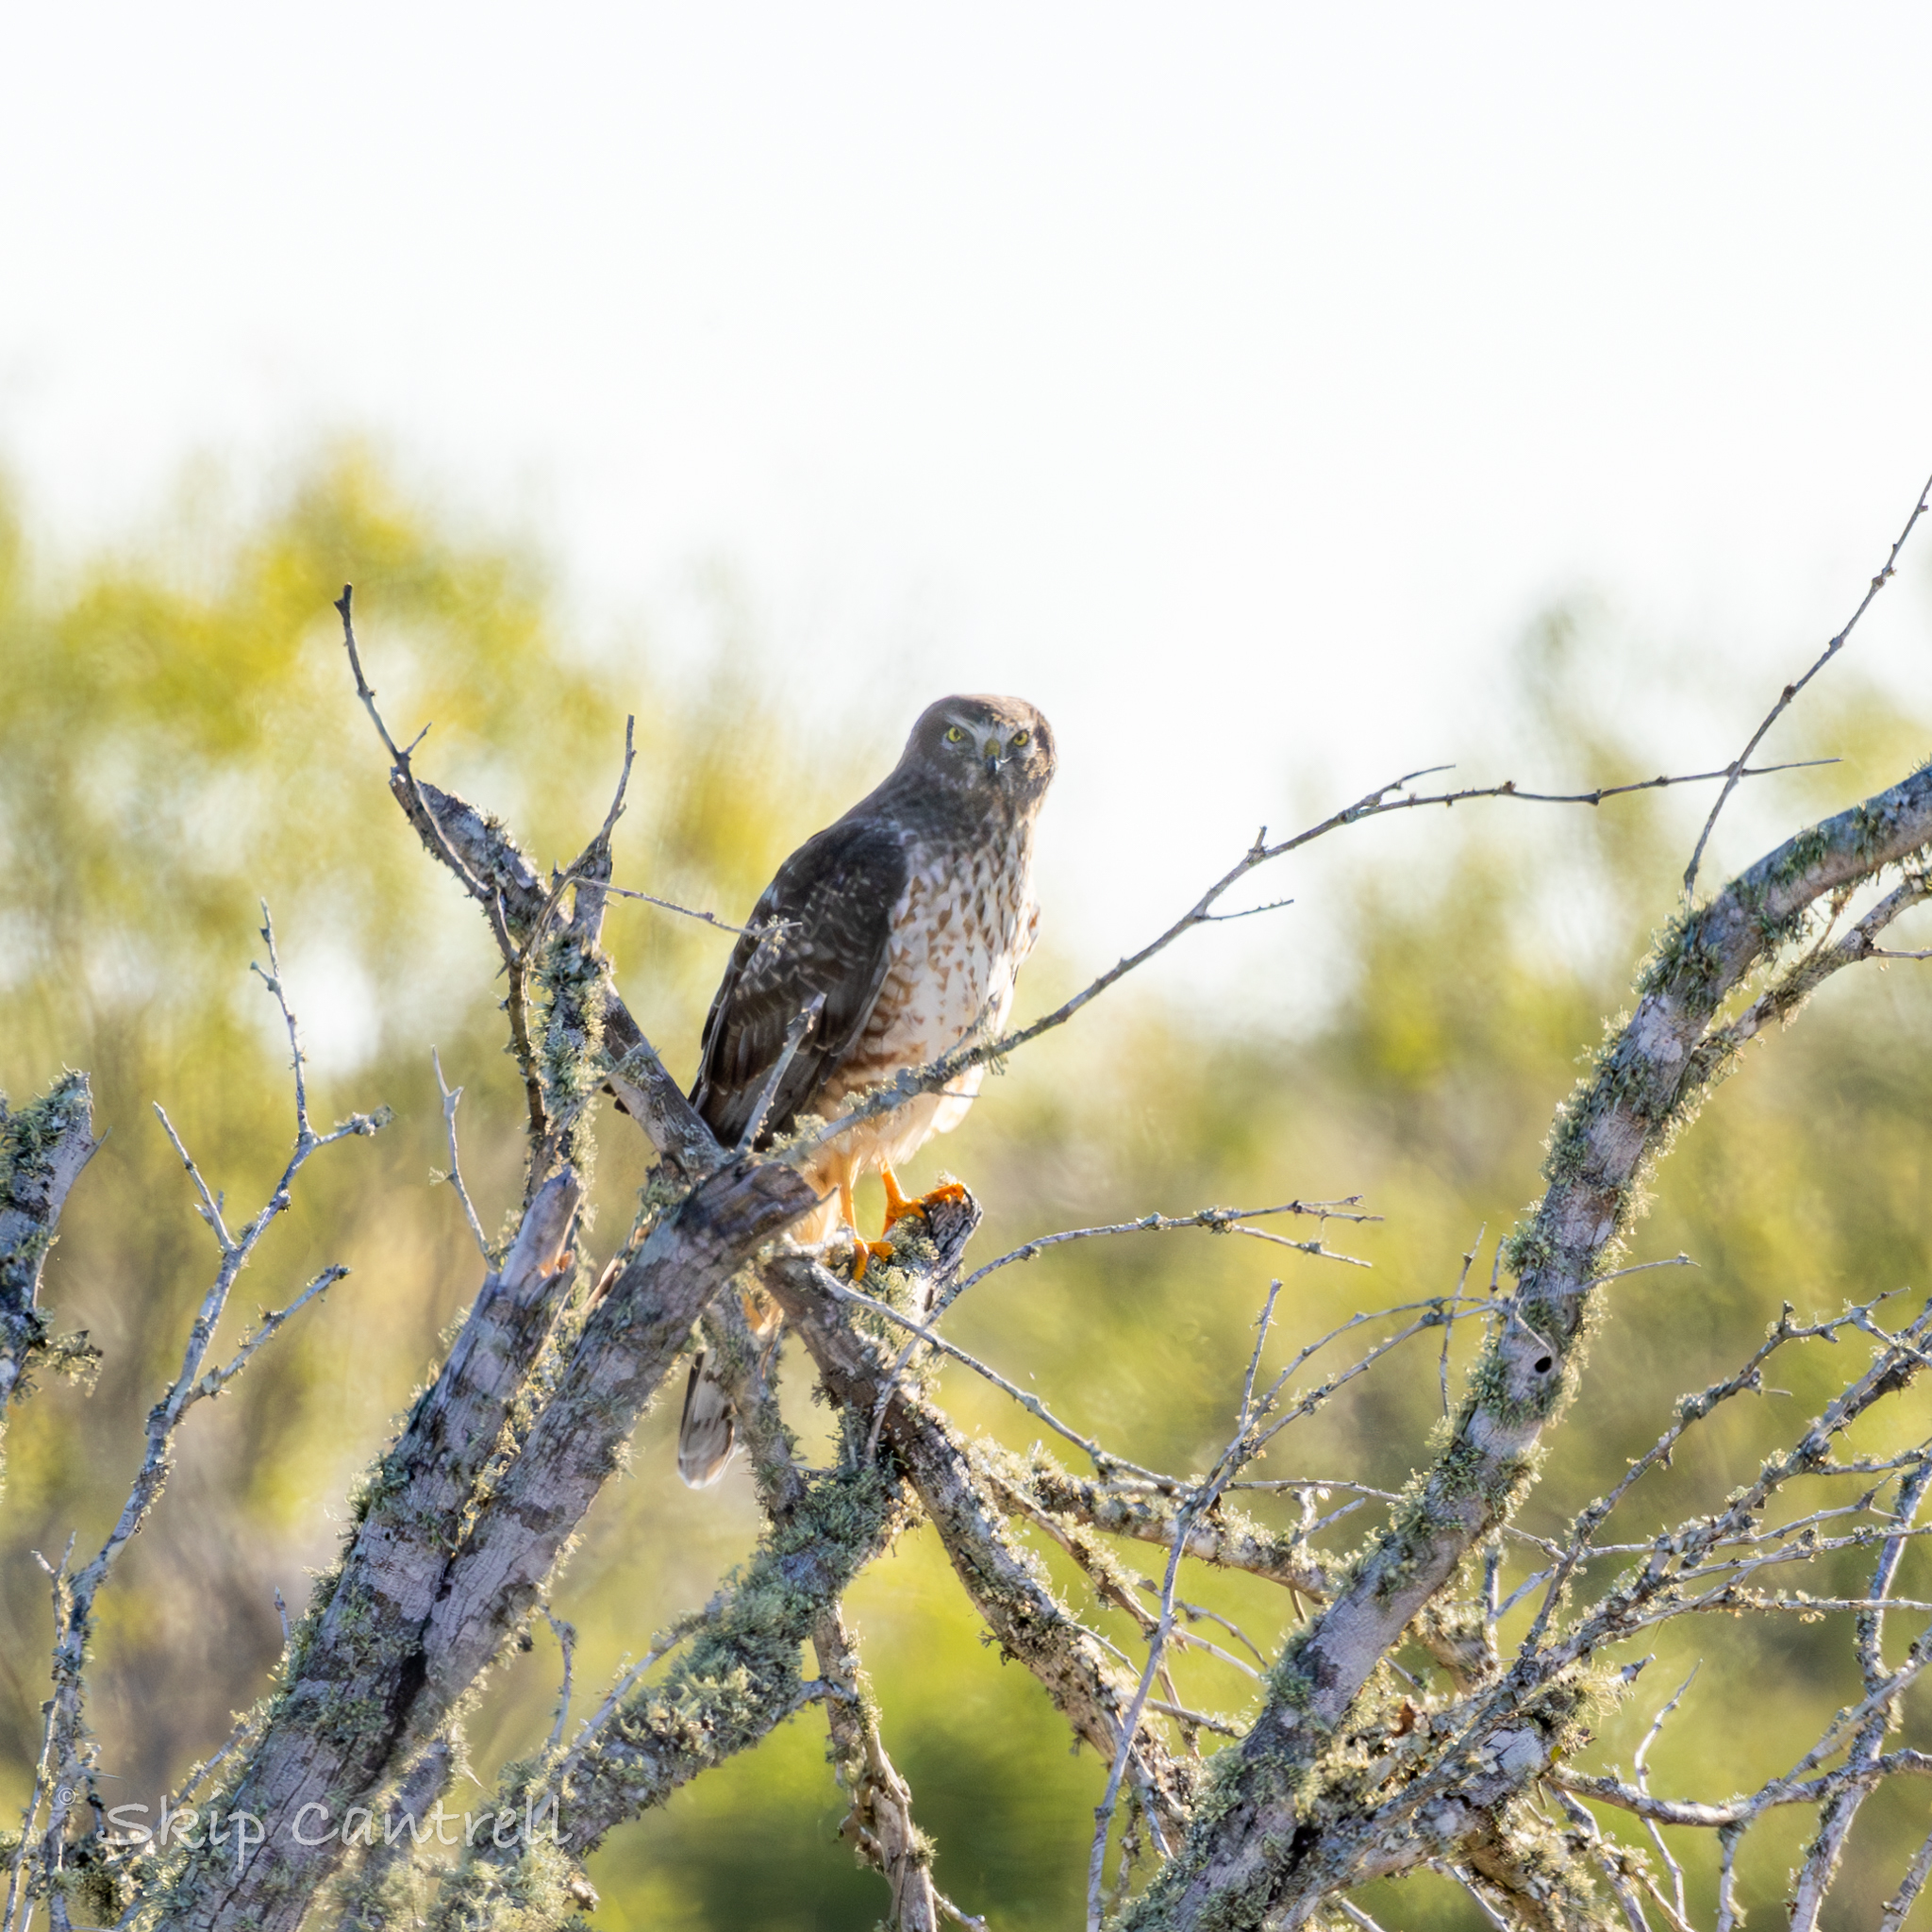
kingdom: Animalia
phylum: Chordata
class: Aves
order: Accipitriformes
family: Accipitridae
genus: Circus
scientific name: Circus cyaneus
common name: Hen harrier
